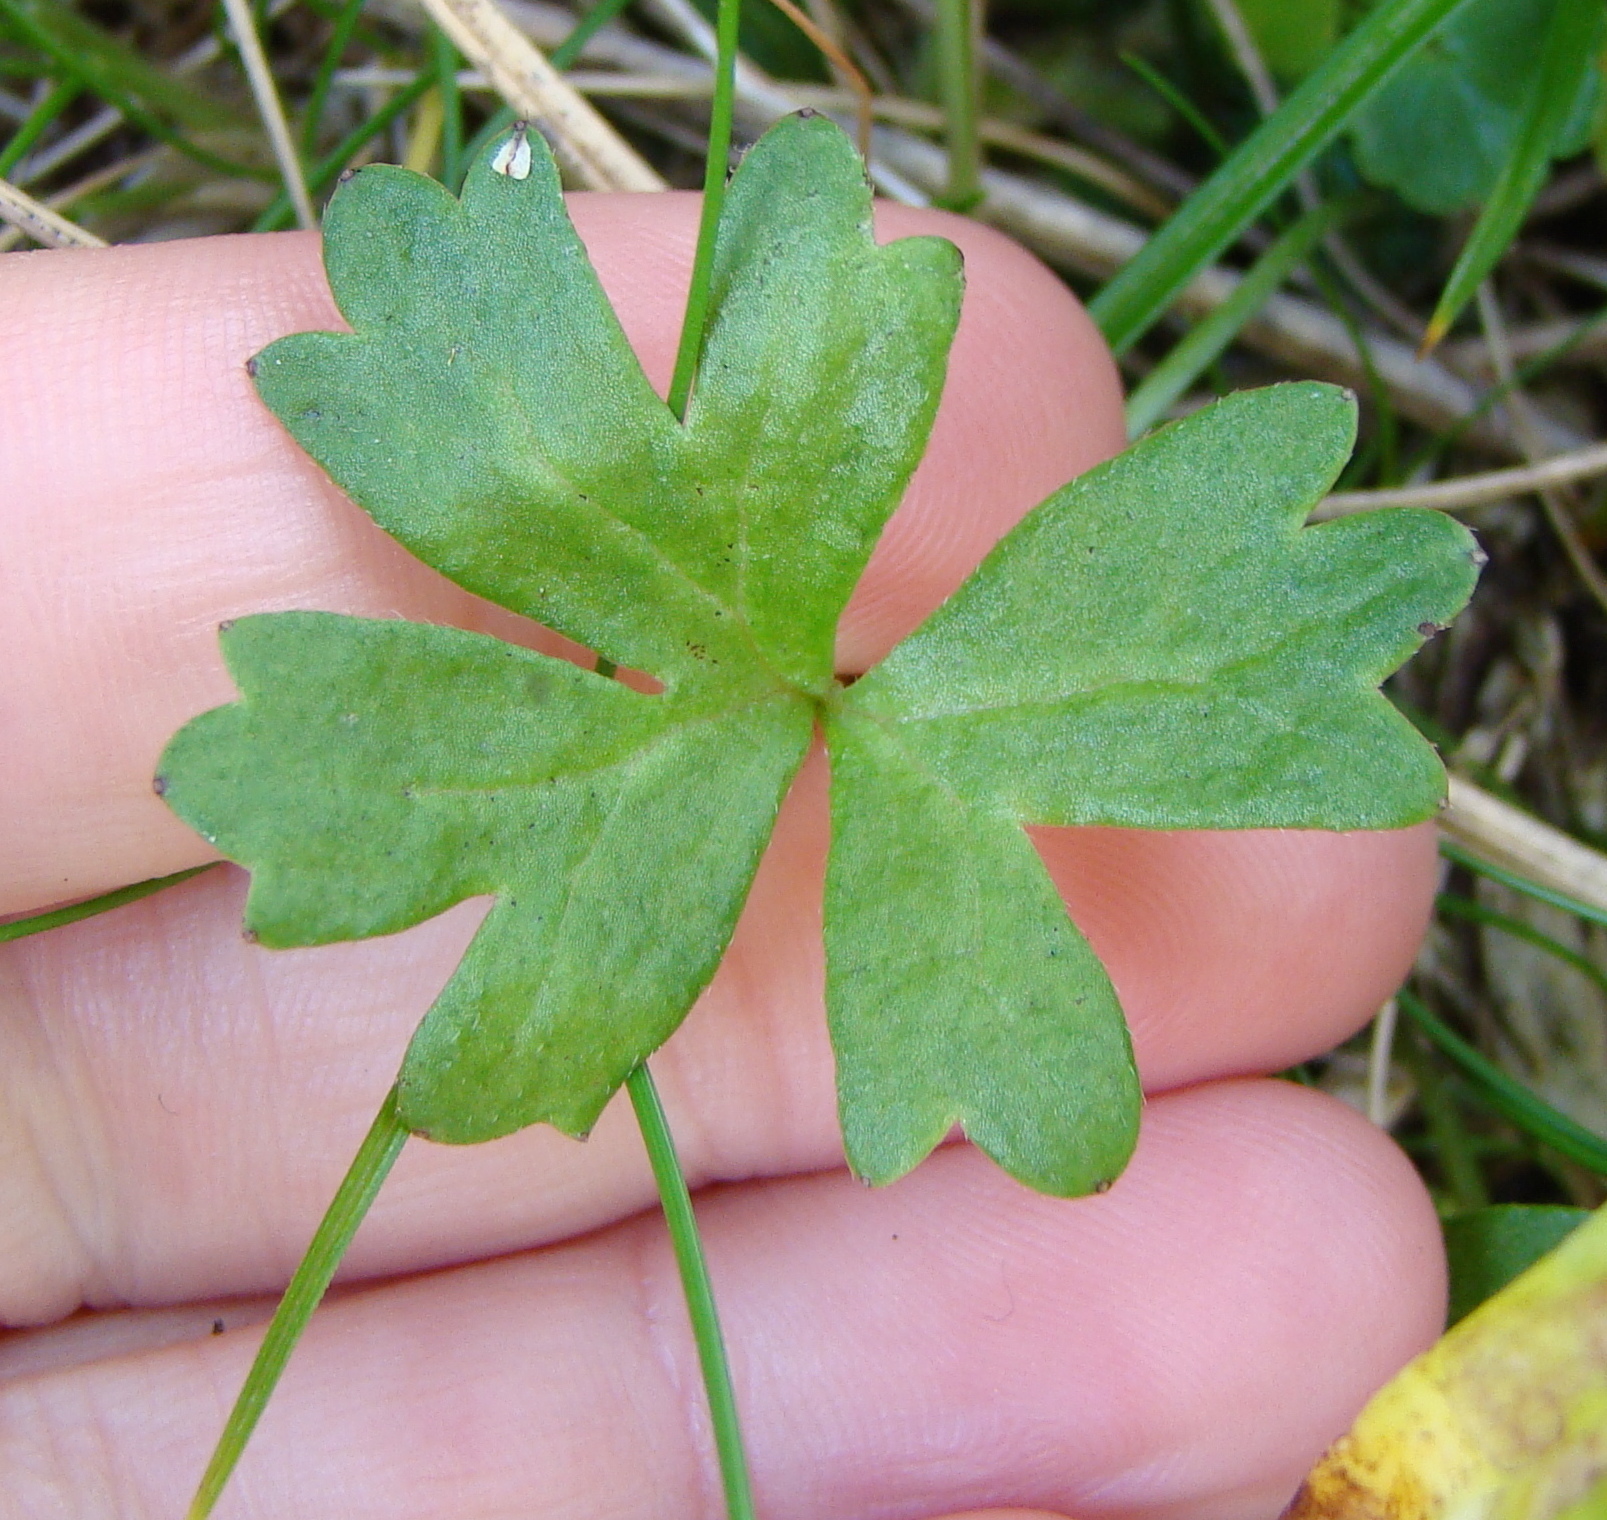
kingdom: Plantae
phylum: Tracheophyta
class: Magnoliopsida
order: Ranunculales
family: Ranunculaceae
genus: Anemonastrum
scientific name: Anemonastrum tenuicaule
